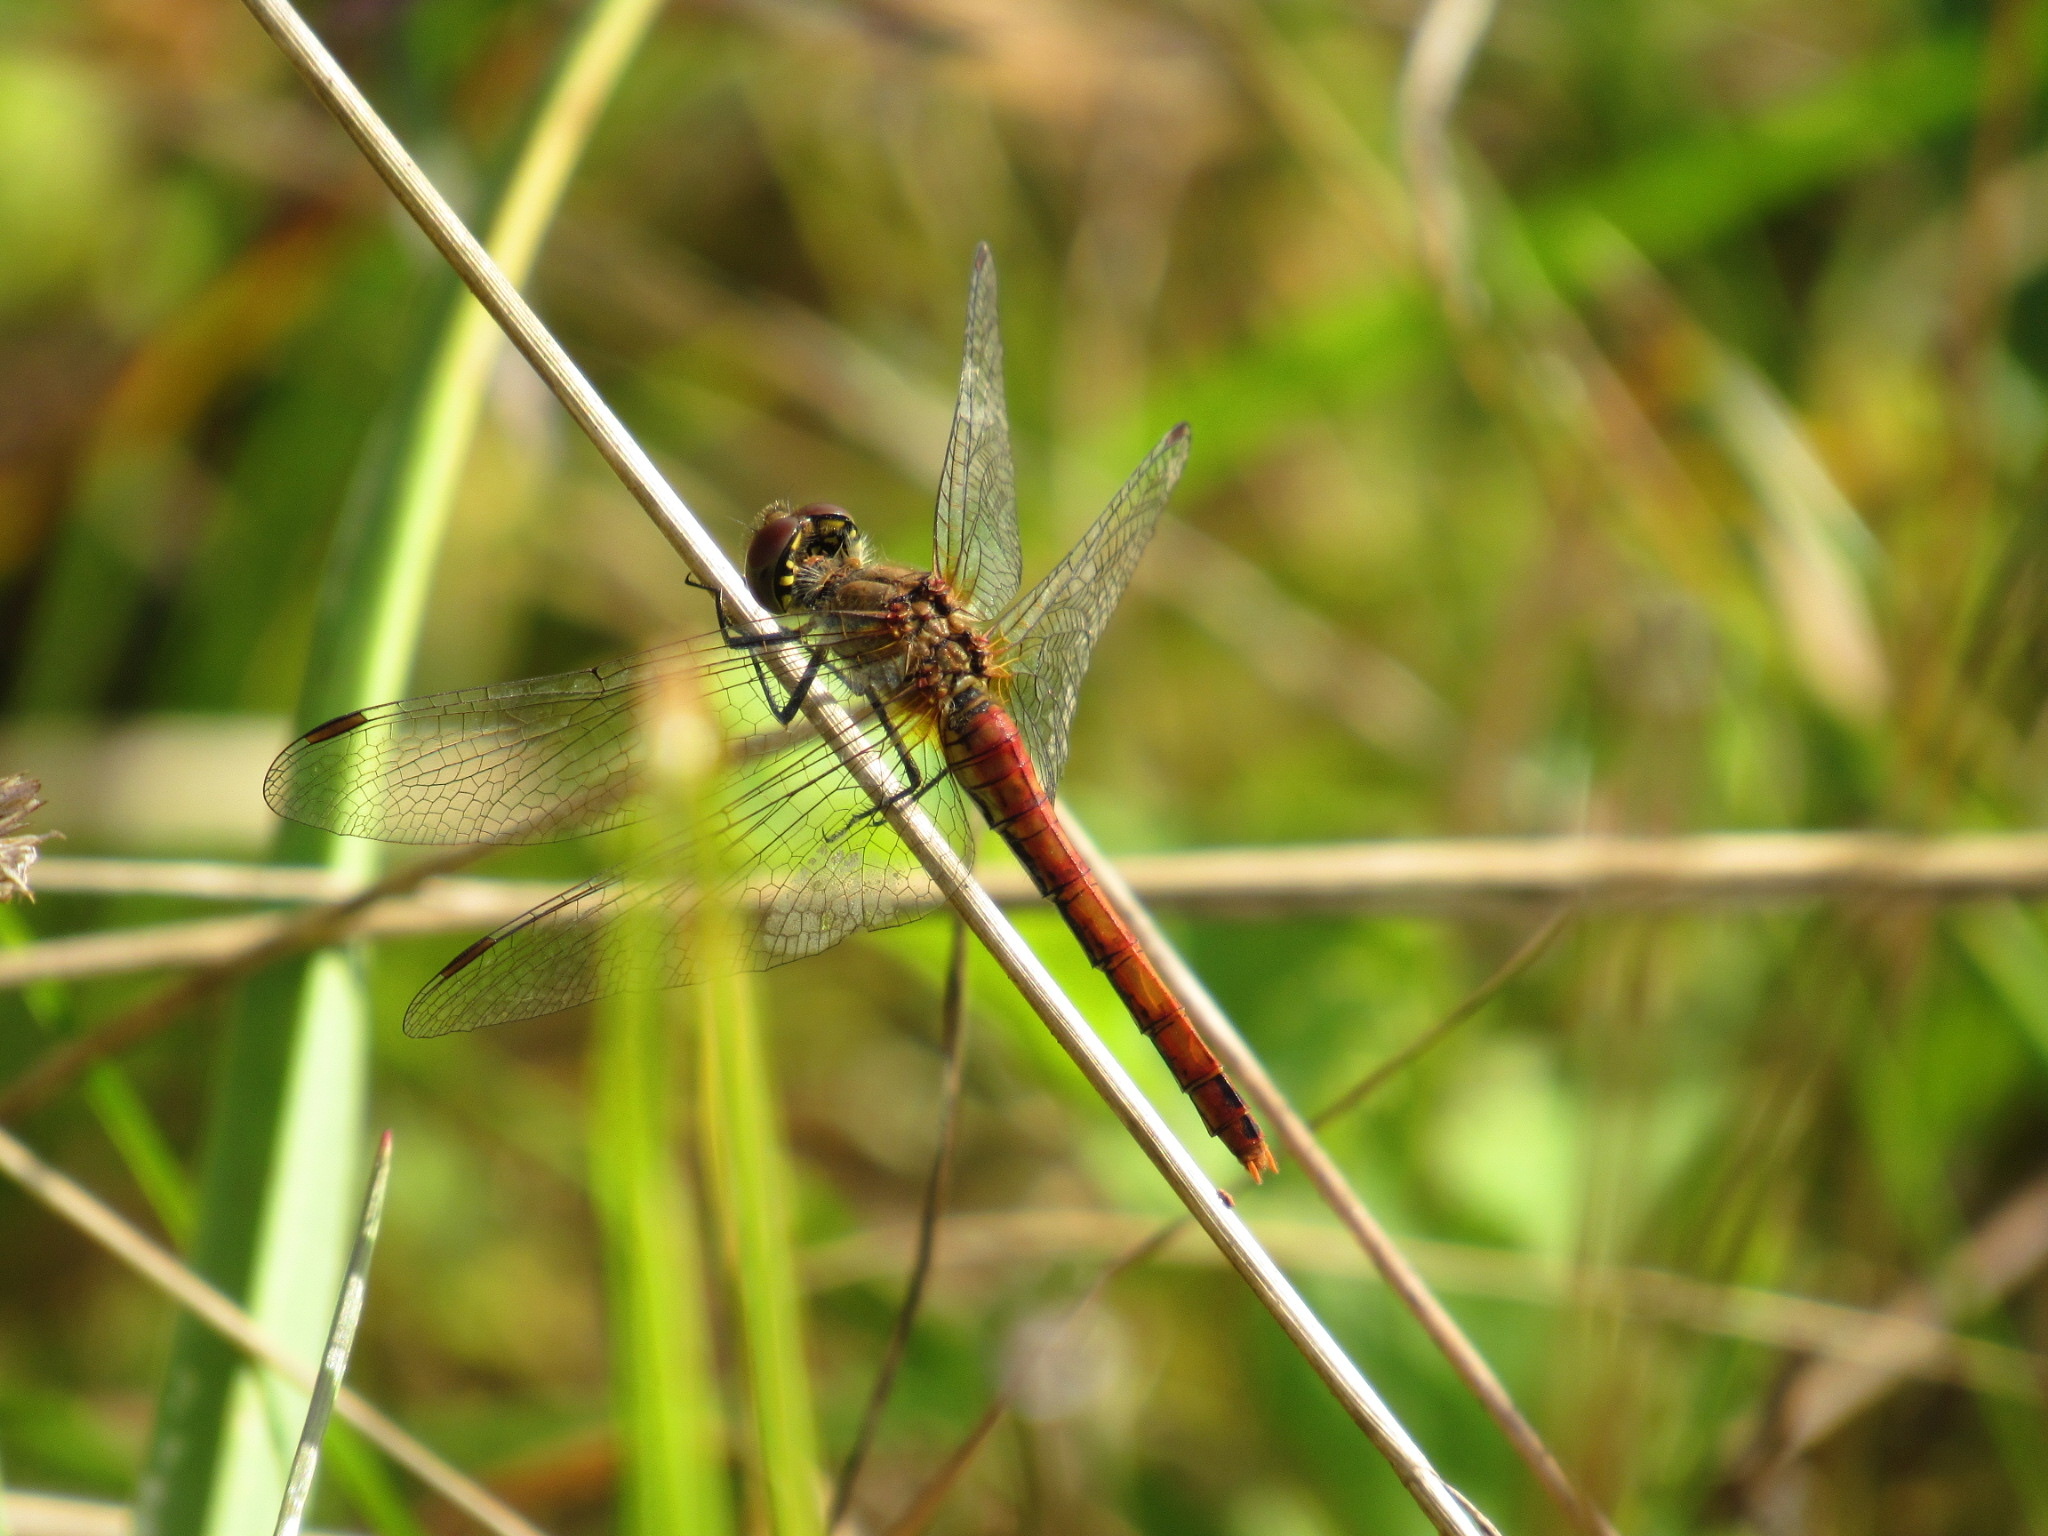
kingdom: Animalia
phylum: Arthropoda
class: Insecta
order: Odonata
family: Libellulidae
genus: Sympetrum
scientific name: Sympetrum sanguineum
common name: Ruddy darter
